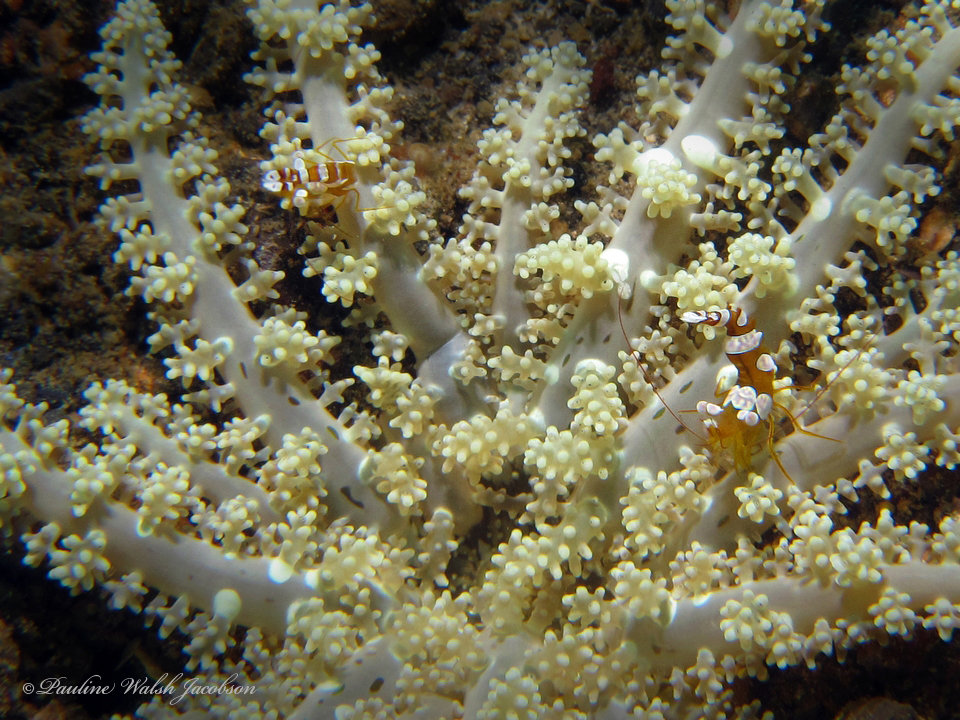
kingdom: Animalia
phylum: Arthropoda
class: Malacostraca
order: Decapoda
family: Thoridae
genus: Thor
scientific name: Thor amboinensis
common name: Squat anemone shrimp
